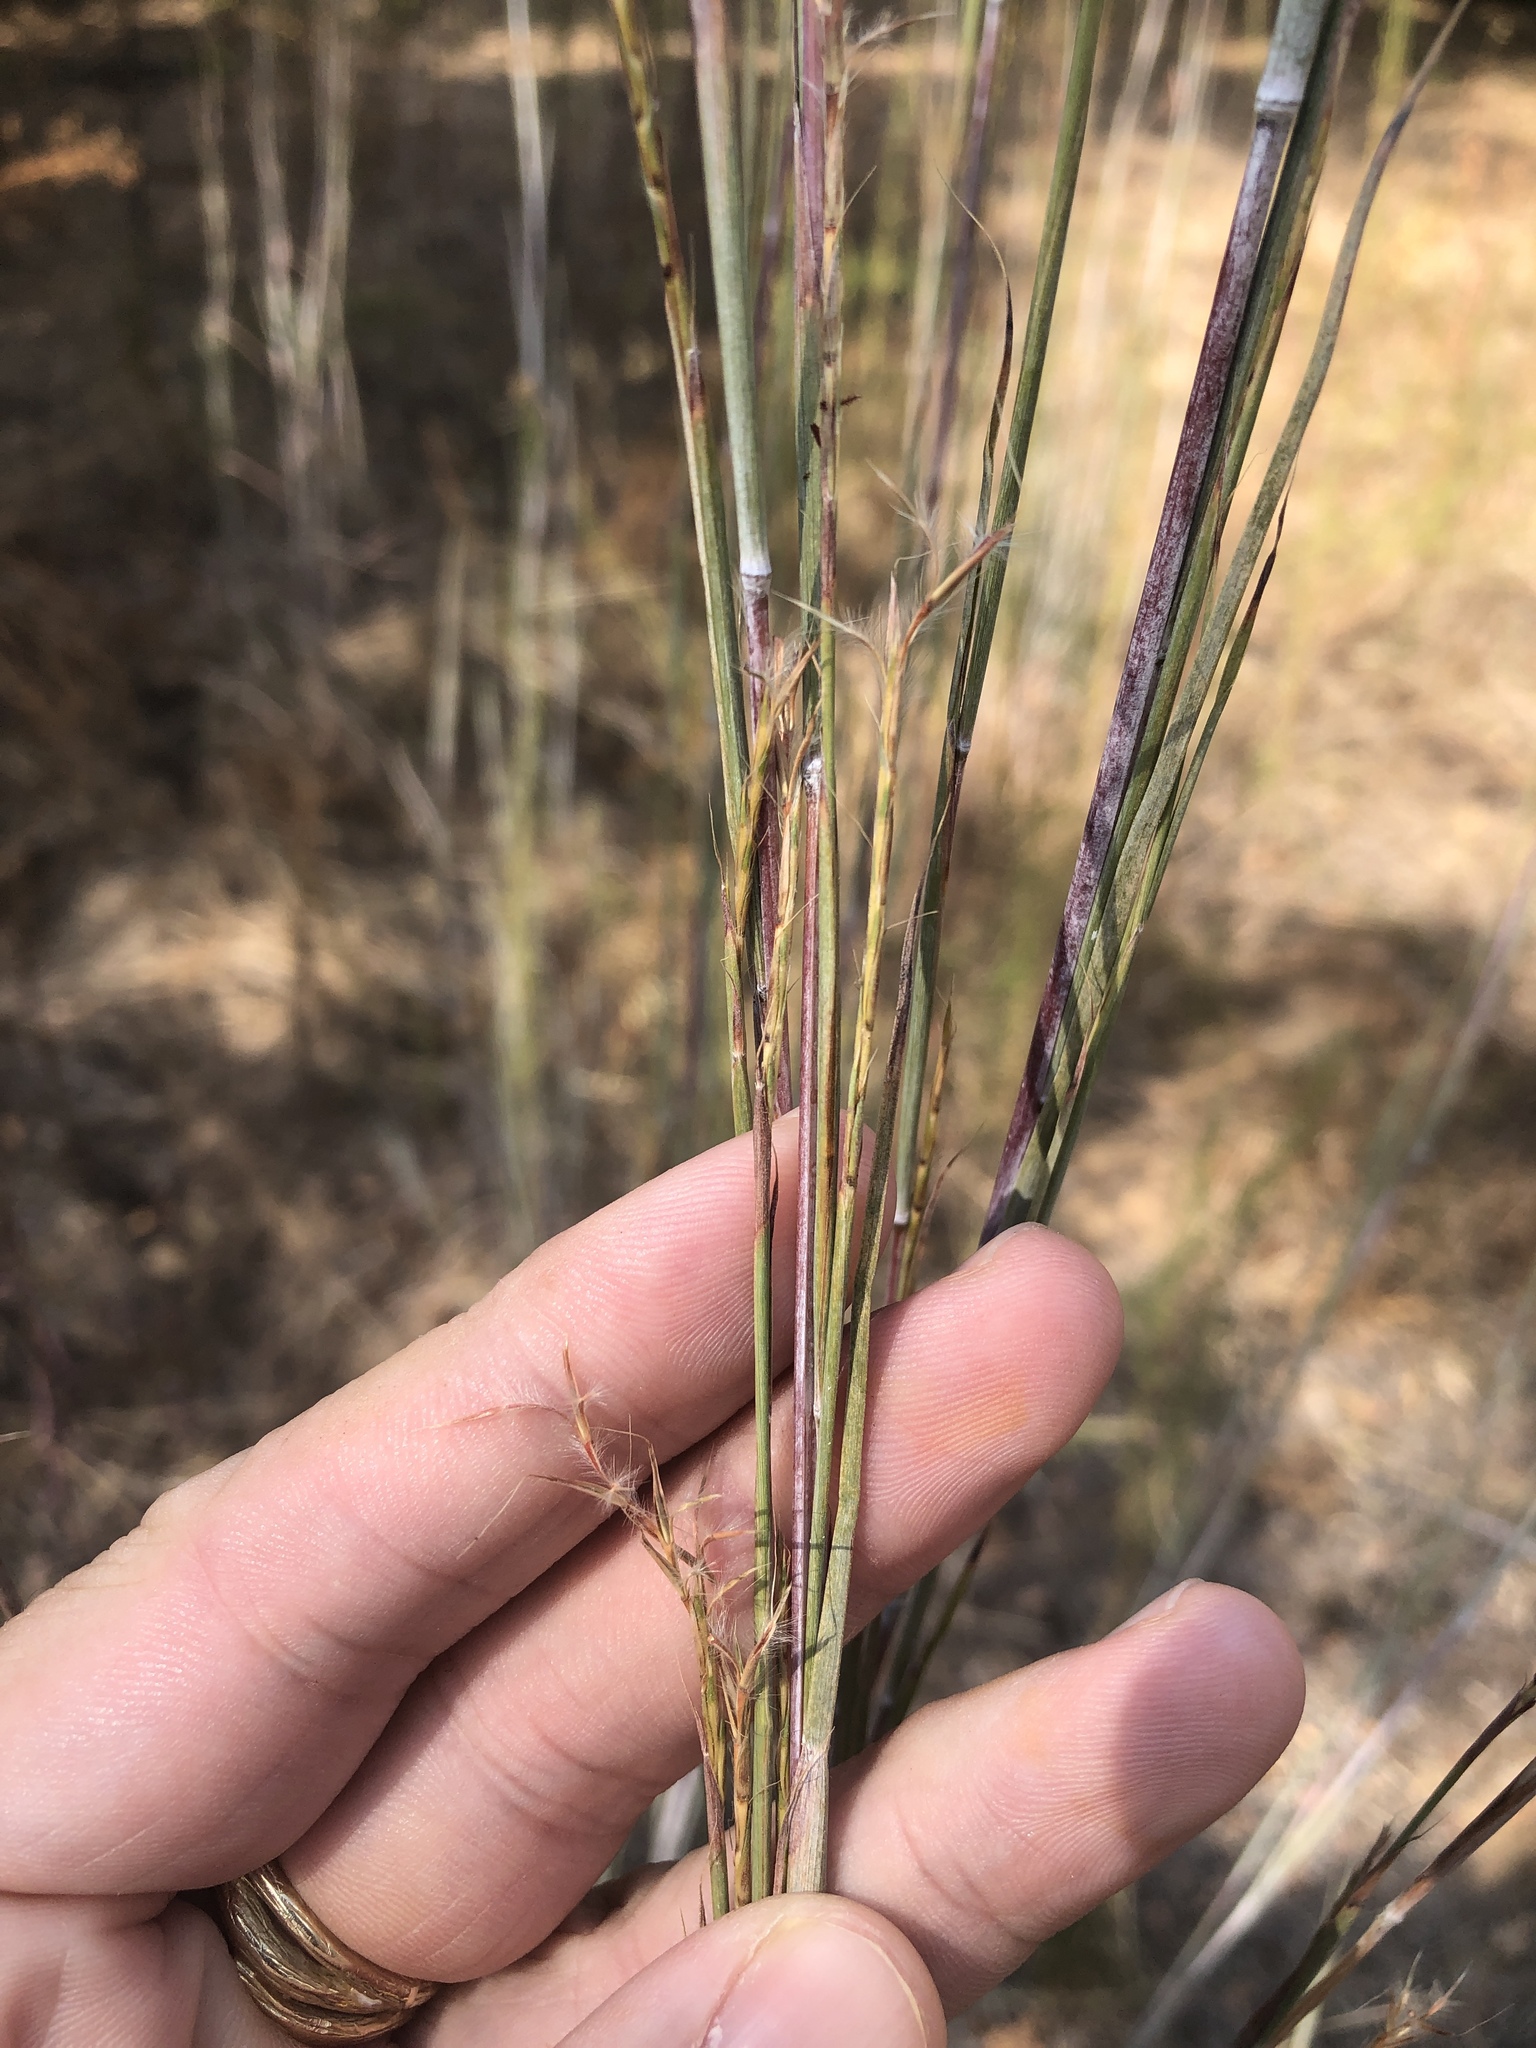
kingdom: Plantae
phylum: Tracheophyta
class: Liliopsida
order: Poales
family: Poaceae
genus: Schizachyrium
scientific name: Schizachyrium scoparium
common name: Little bluestem
